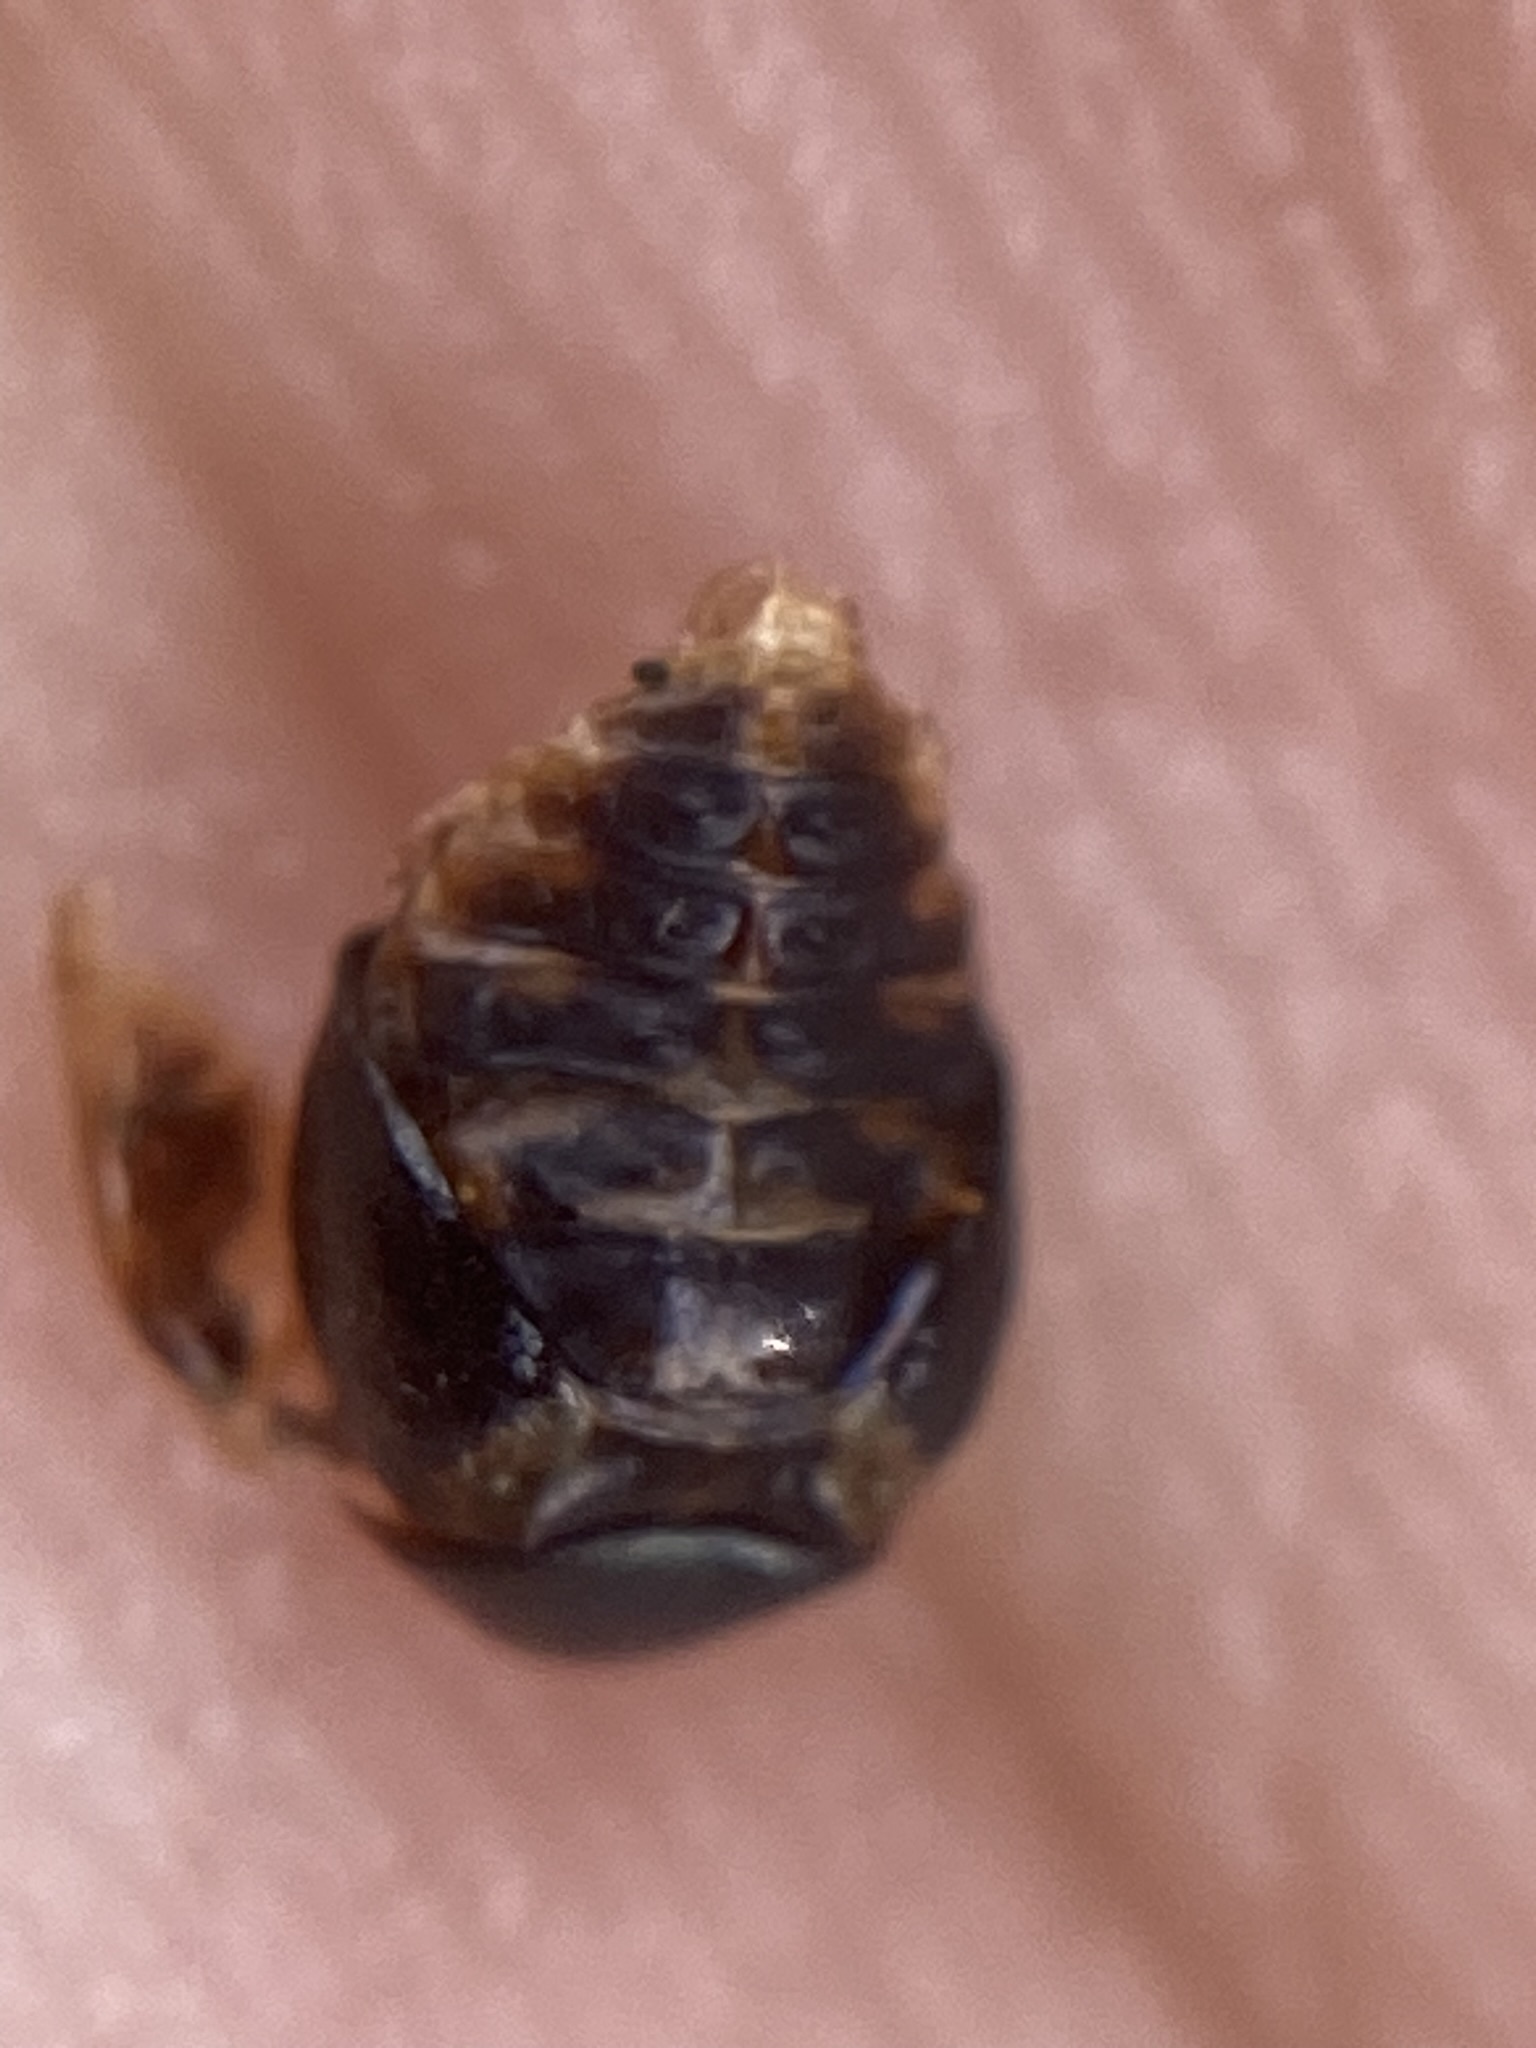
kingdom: Animalia
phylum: Arthropoda
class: Insecta
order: Coleoptera
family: Coccinellidae
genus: Curinus
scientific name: Curinus coeruleus
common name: Ladybird beetle
